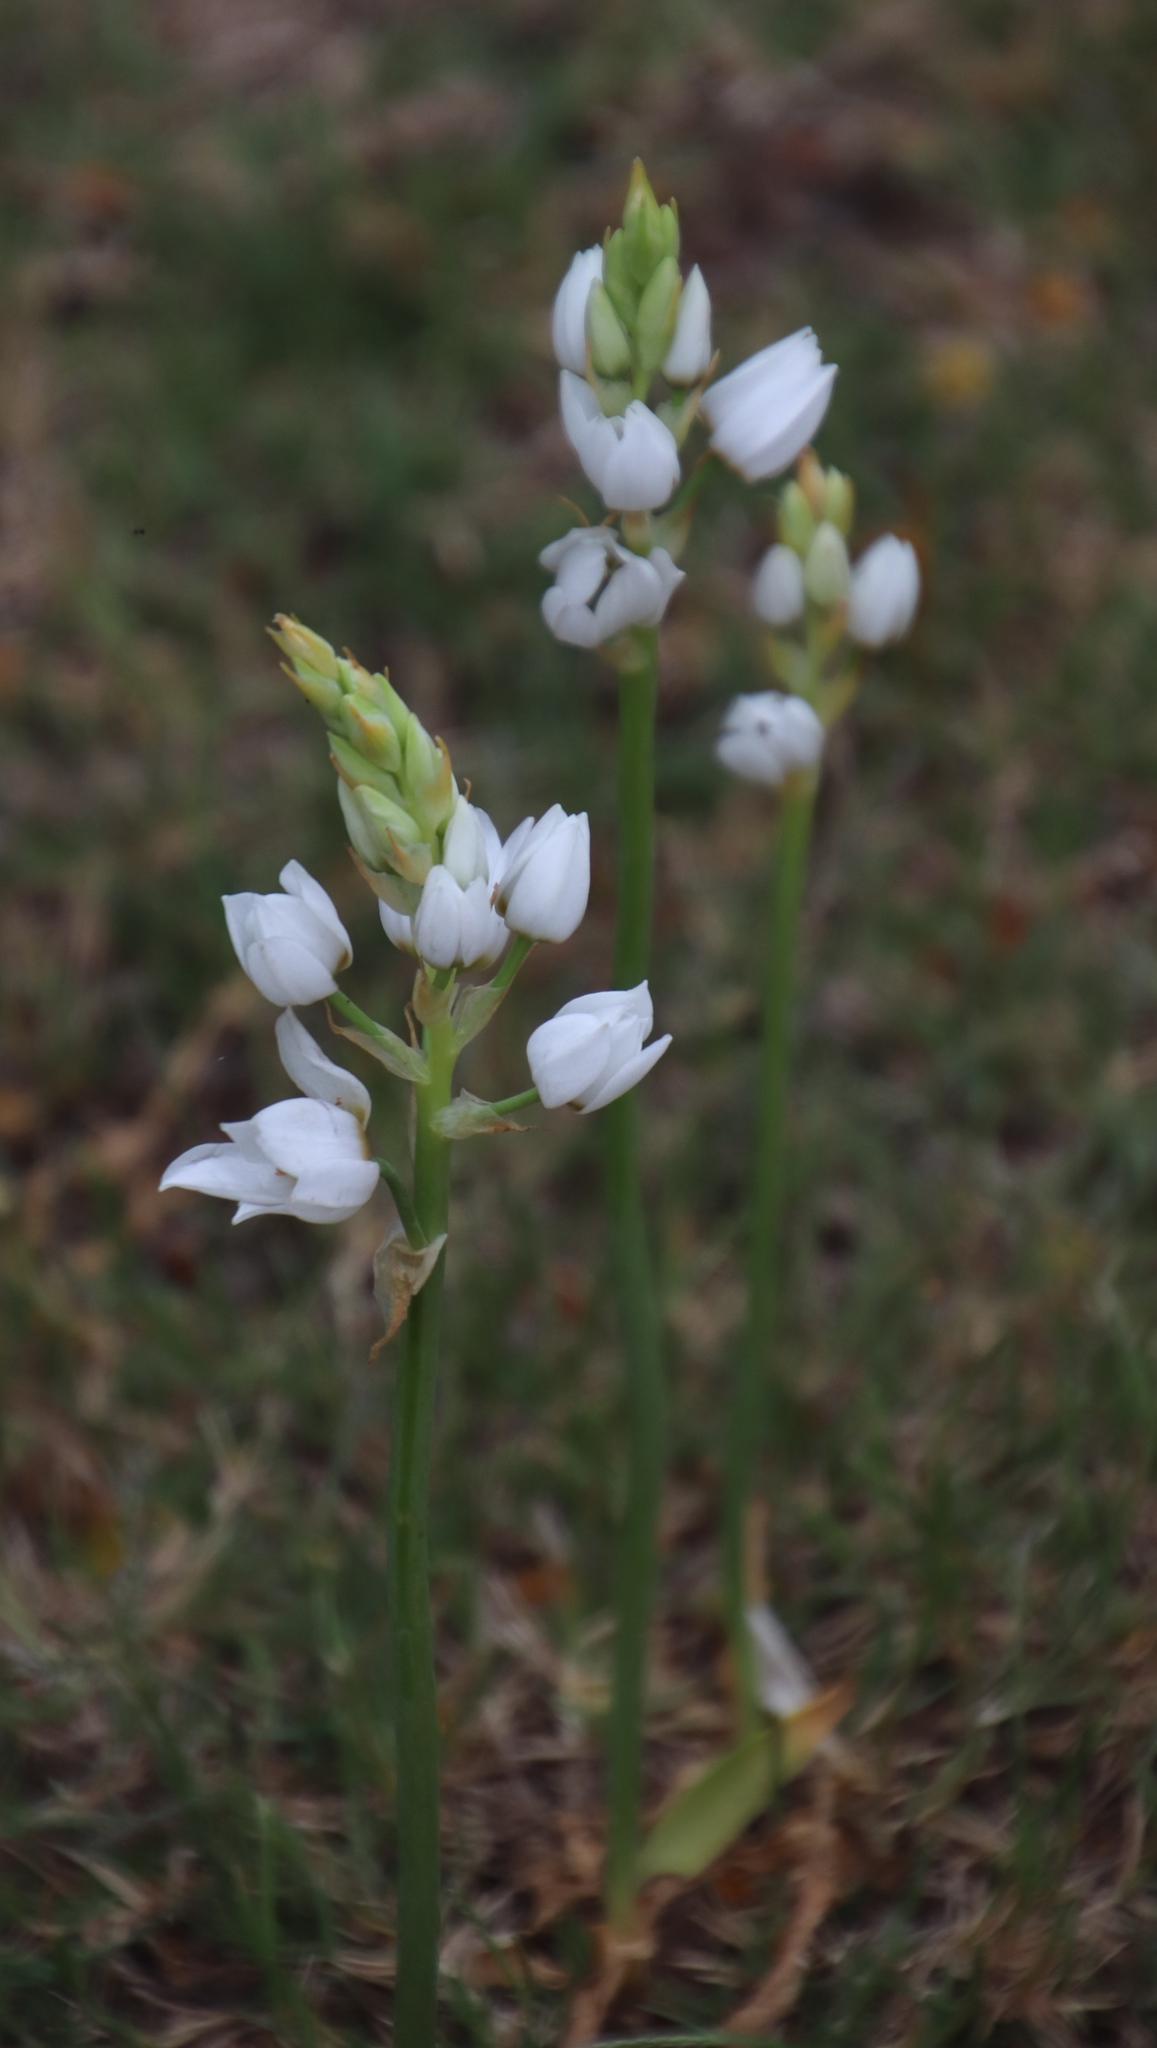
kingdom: Plantae
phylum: Tracheophyta
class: Liliopsida
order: Asparagales
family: Asparagaceae
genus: Ornithogalum
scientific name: Ornithogalum thyrsoides
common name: Chincherinchee
